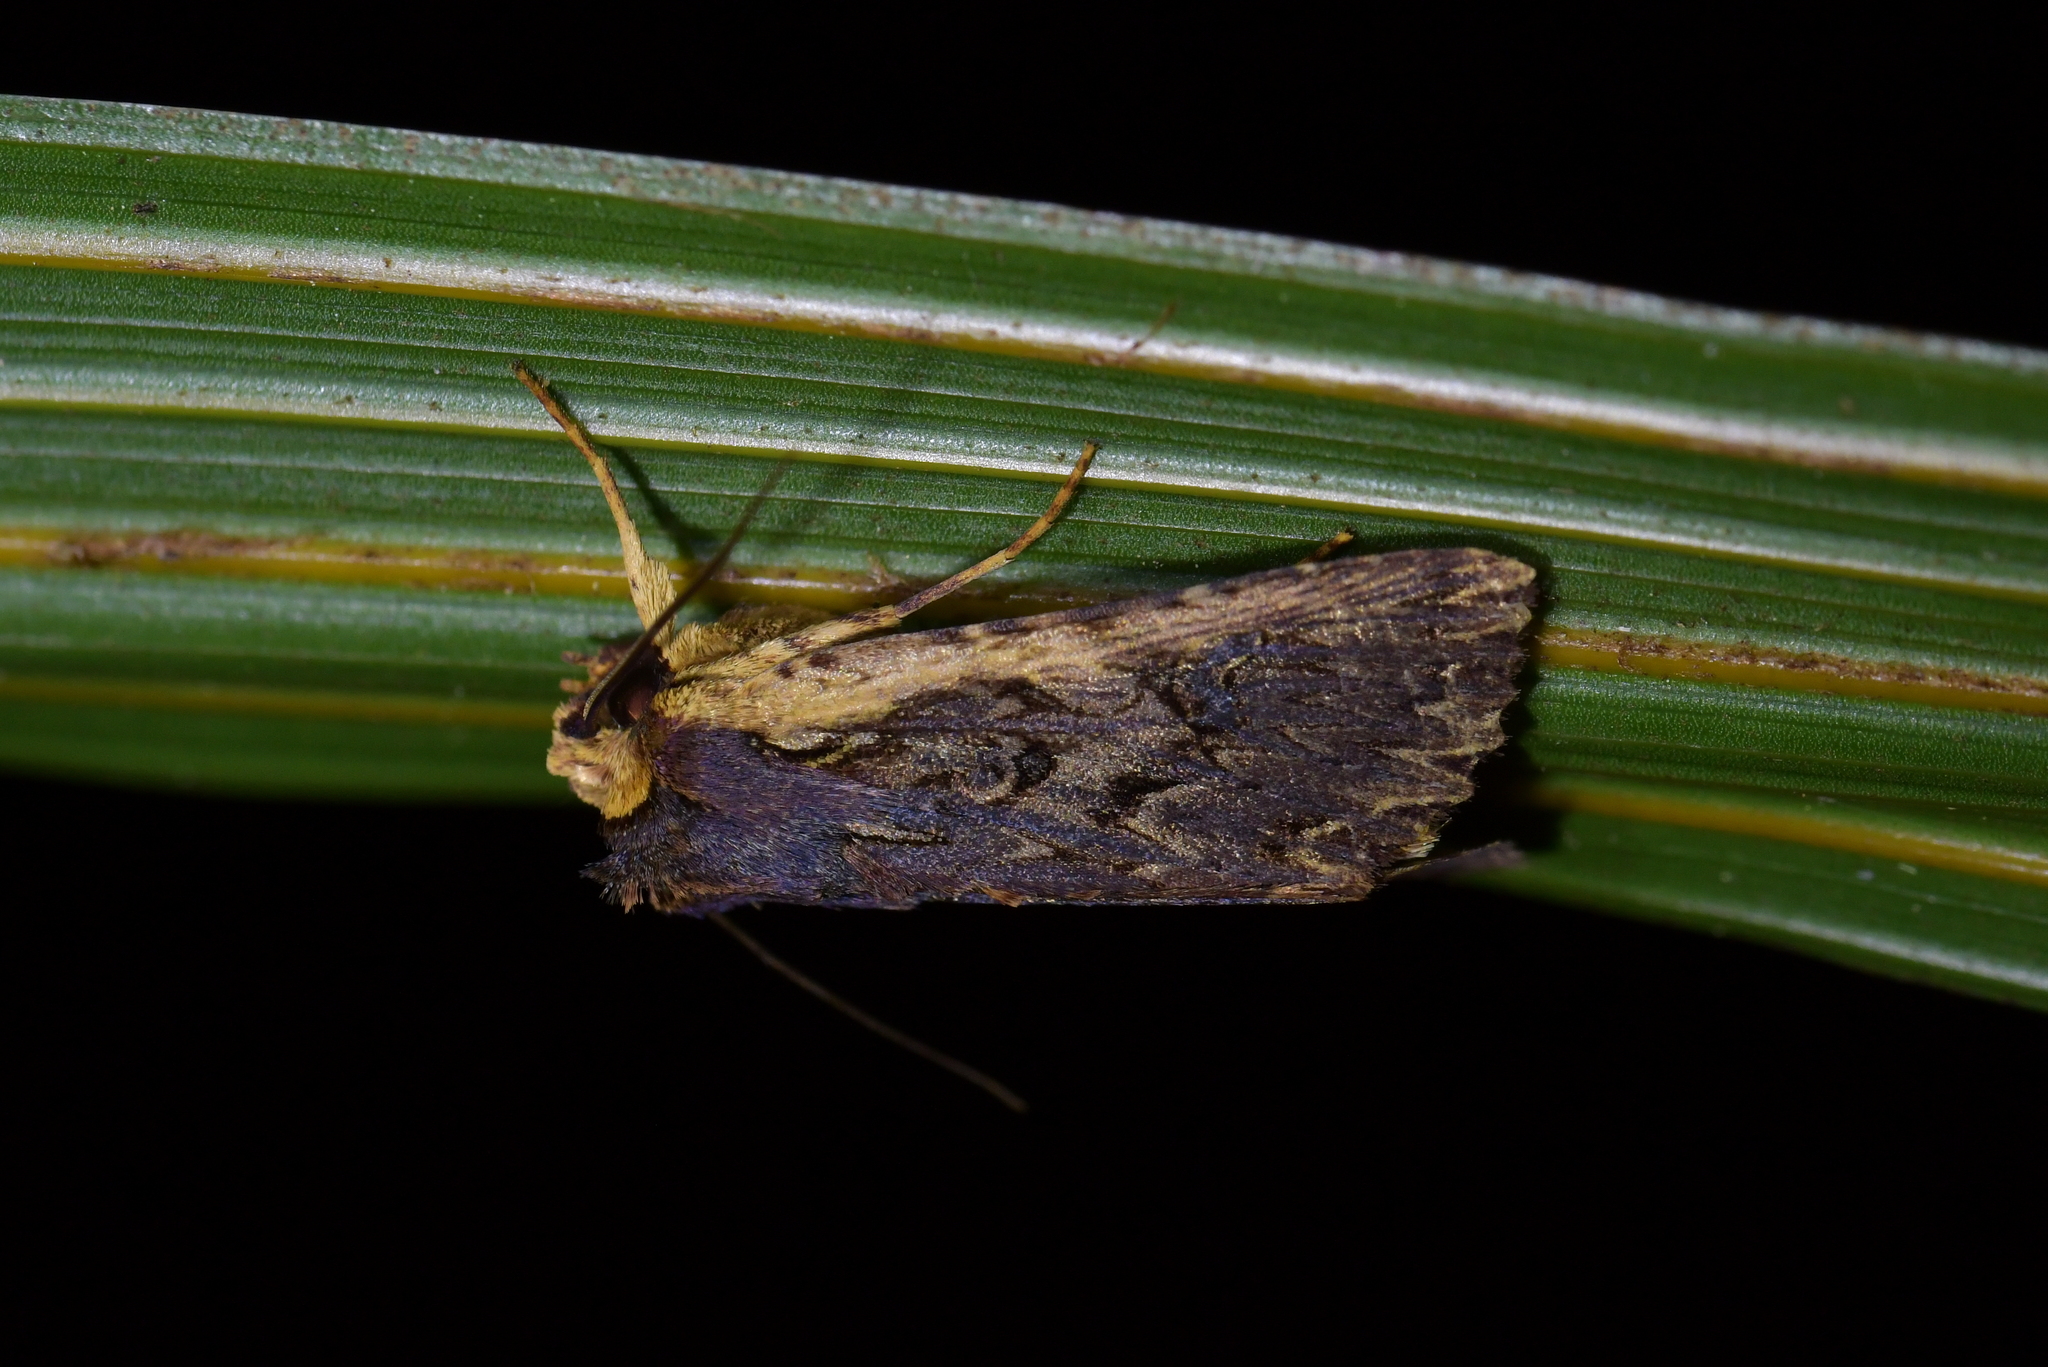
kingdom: Animalia
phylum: Arthropoda
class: Insecta
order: Lepidoptera
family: Noctuidae
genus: Meterana
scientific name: Meterana alcyone
